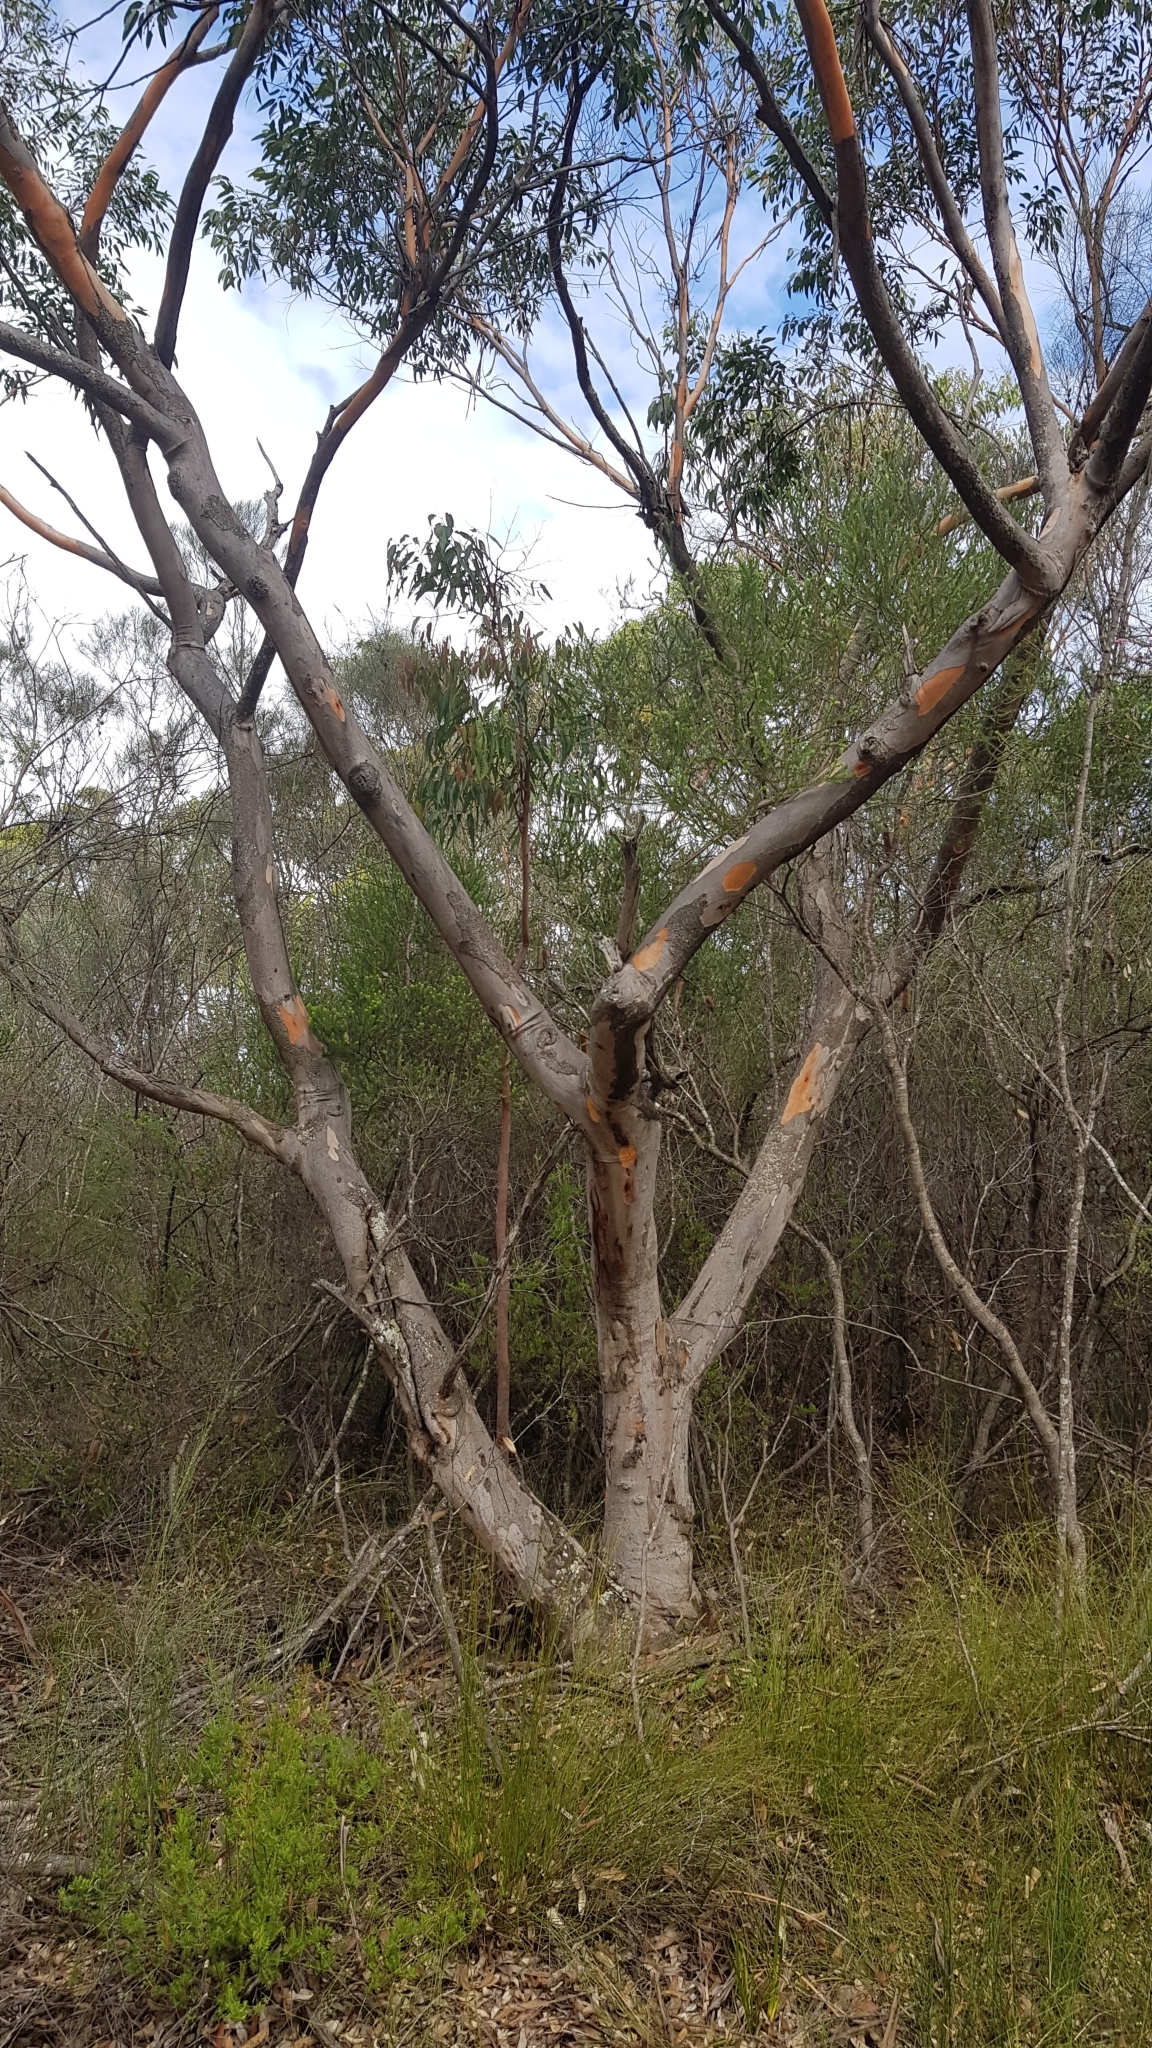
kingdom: Plantae
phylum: Tracheophyta
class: Magnoliopsida
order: Myrtales
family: Myrtaceae
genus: Eucalyptus
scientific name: Eucalyptus punctata
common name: Gray gum
